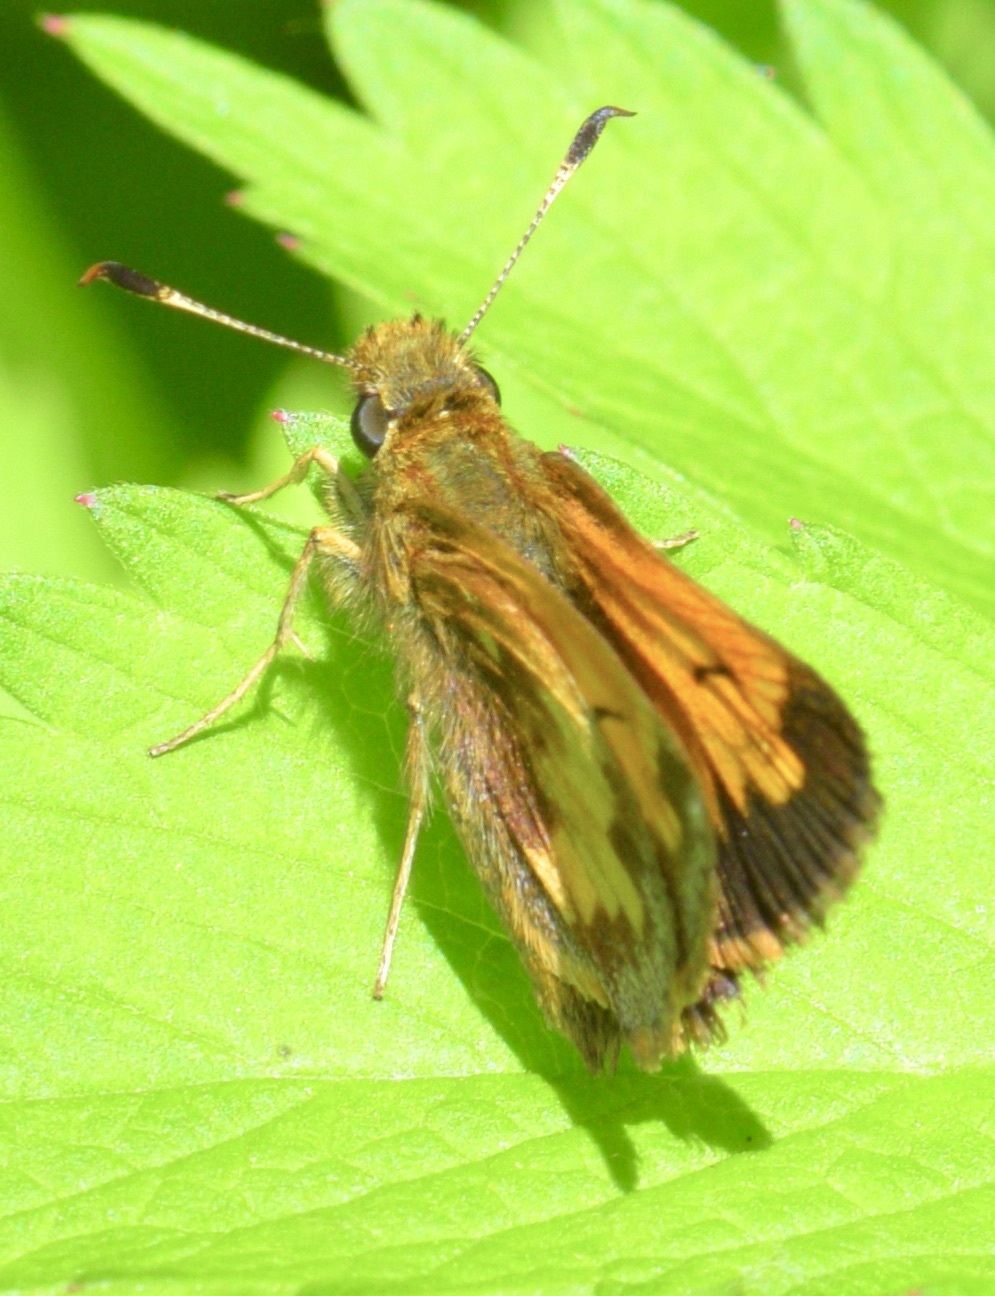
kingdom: Animalia
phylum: Arthropoda
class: Insecta
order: Lepidoptera
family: Hesperiidae
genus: Lon
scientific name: Lon hobomok
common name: Hobomok skipper
